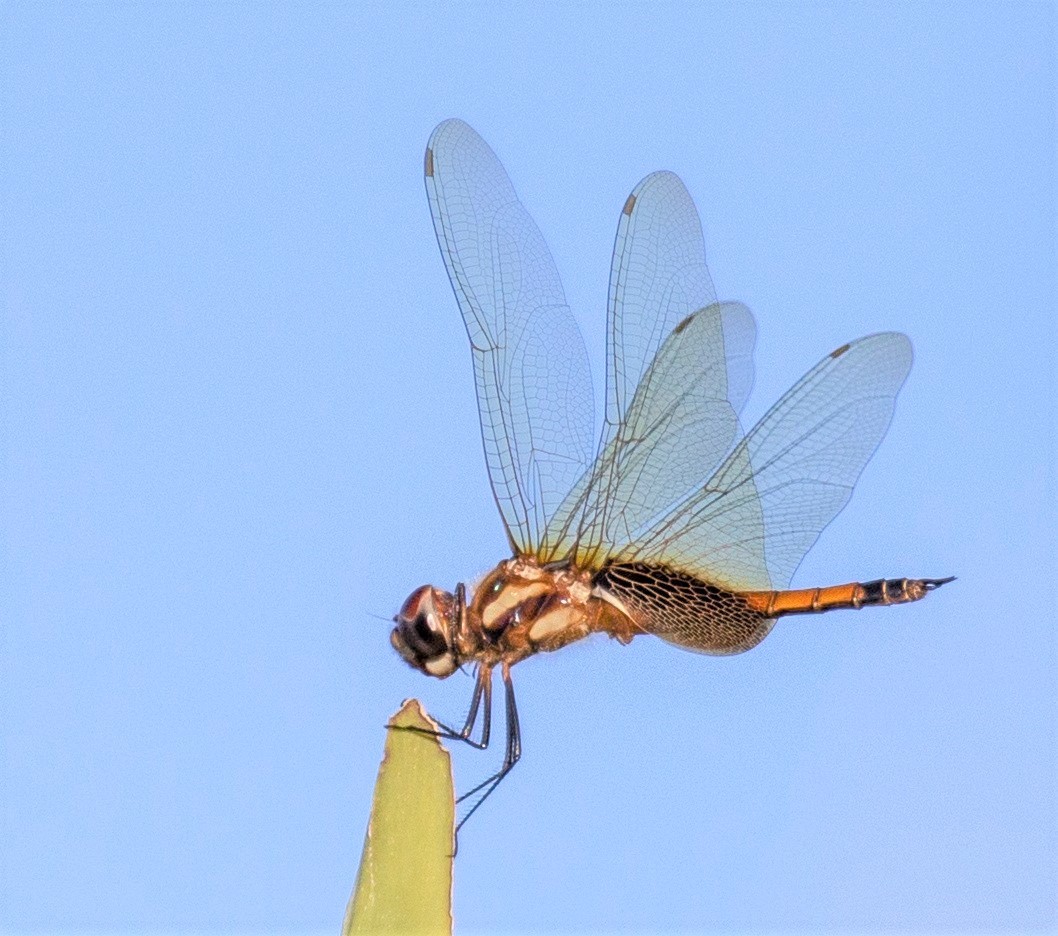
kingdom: Animalia
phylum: Arthropoda
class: Insecta
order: Odonata
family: Libellulidae
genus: Tramea
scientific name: Tramea darwini
